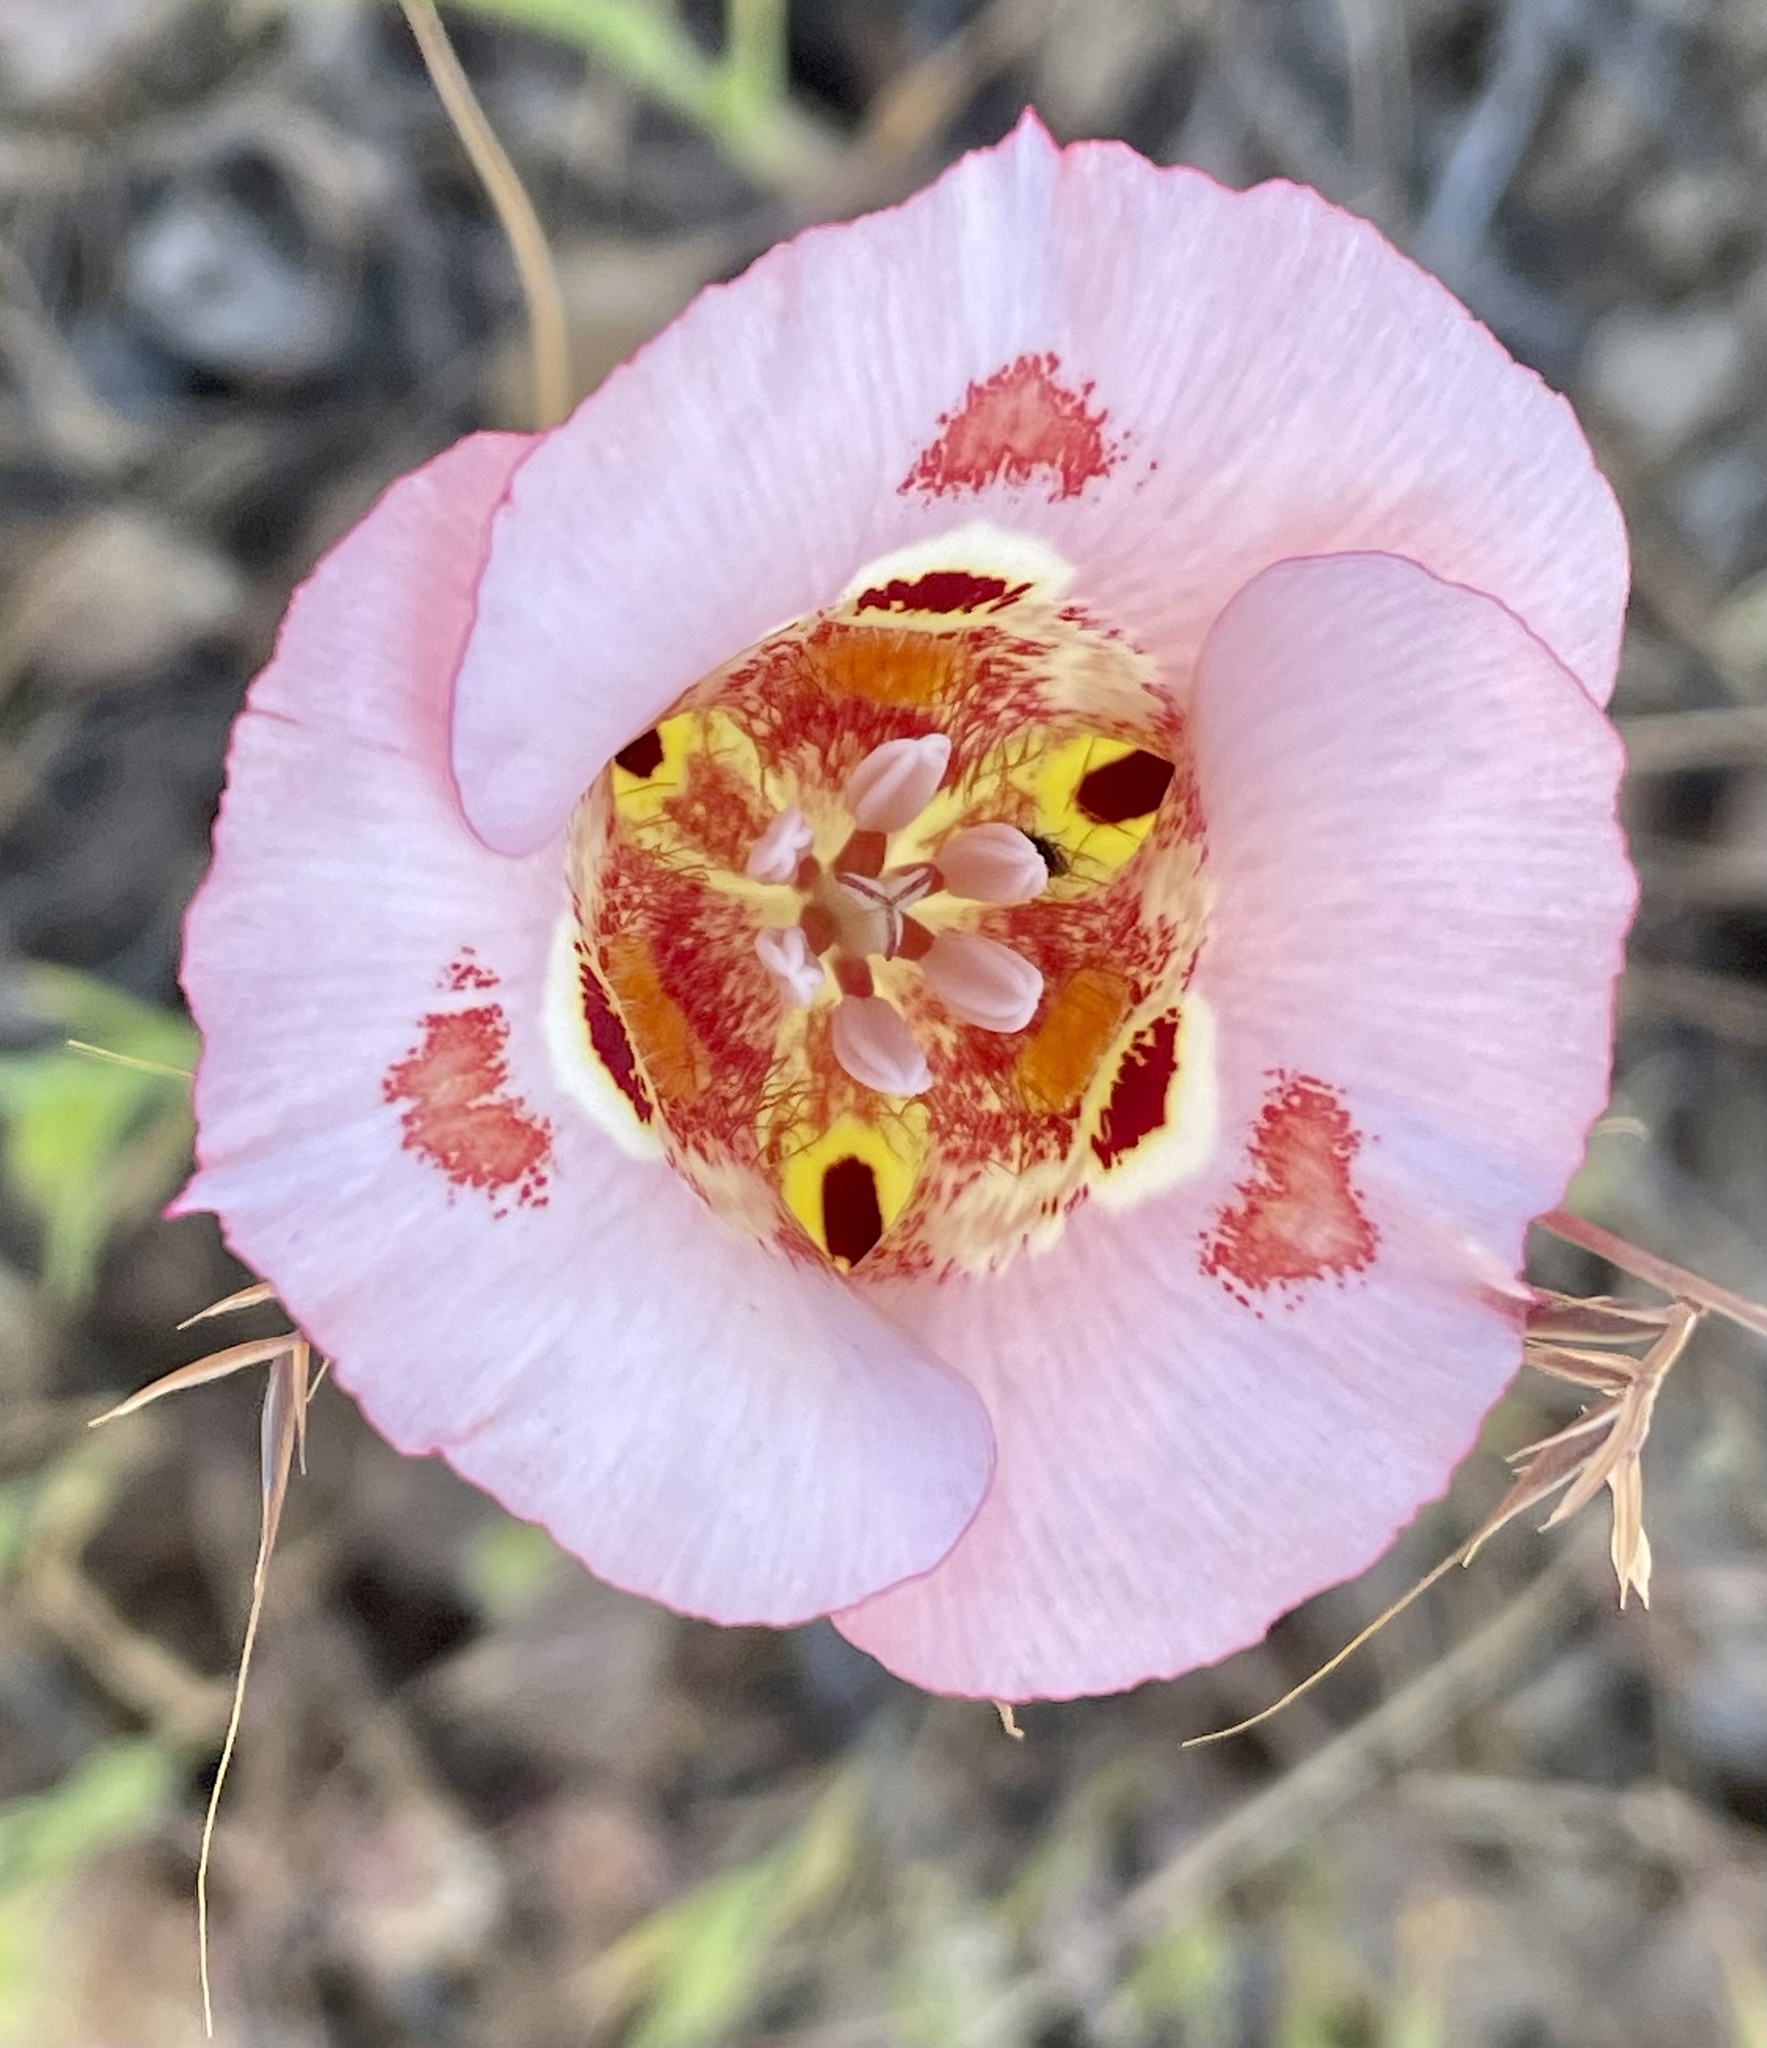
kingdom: Plantae
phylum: Tracheophyta
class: Liliopsida
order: Liliales
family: Liliaceae
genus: Calochortus
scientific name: Calochortus venustus
